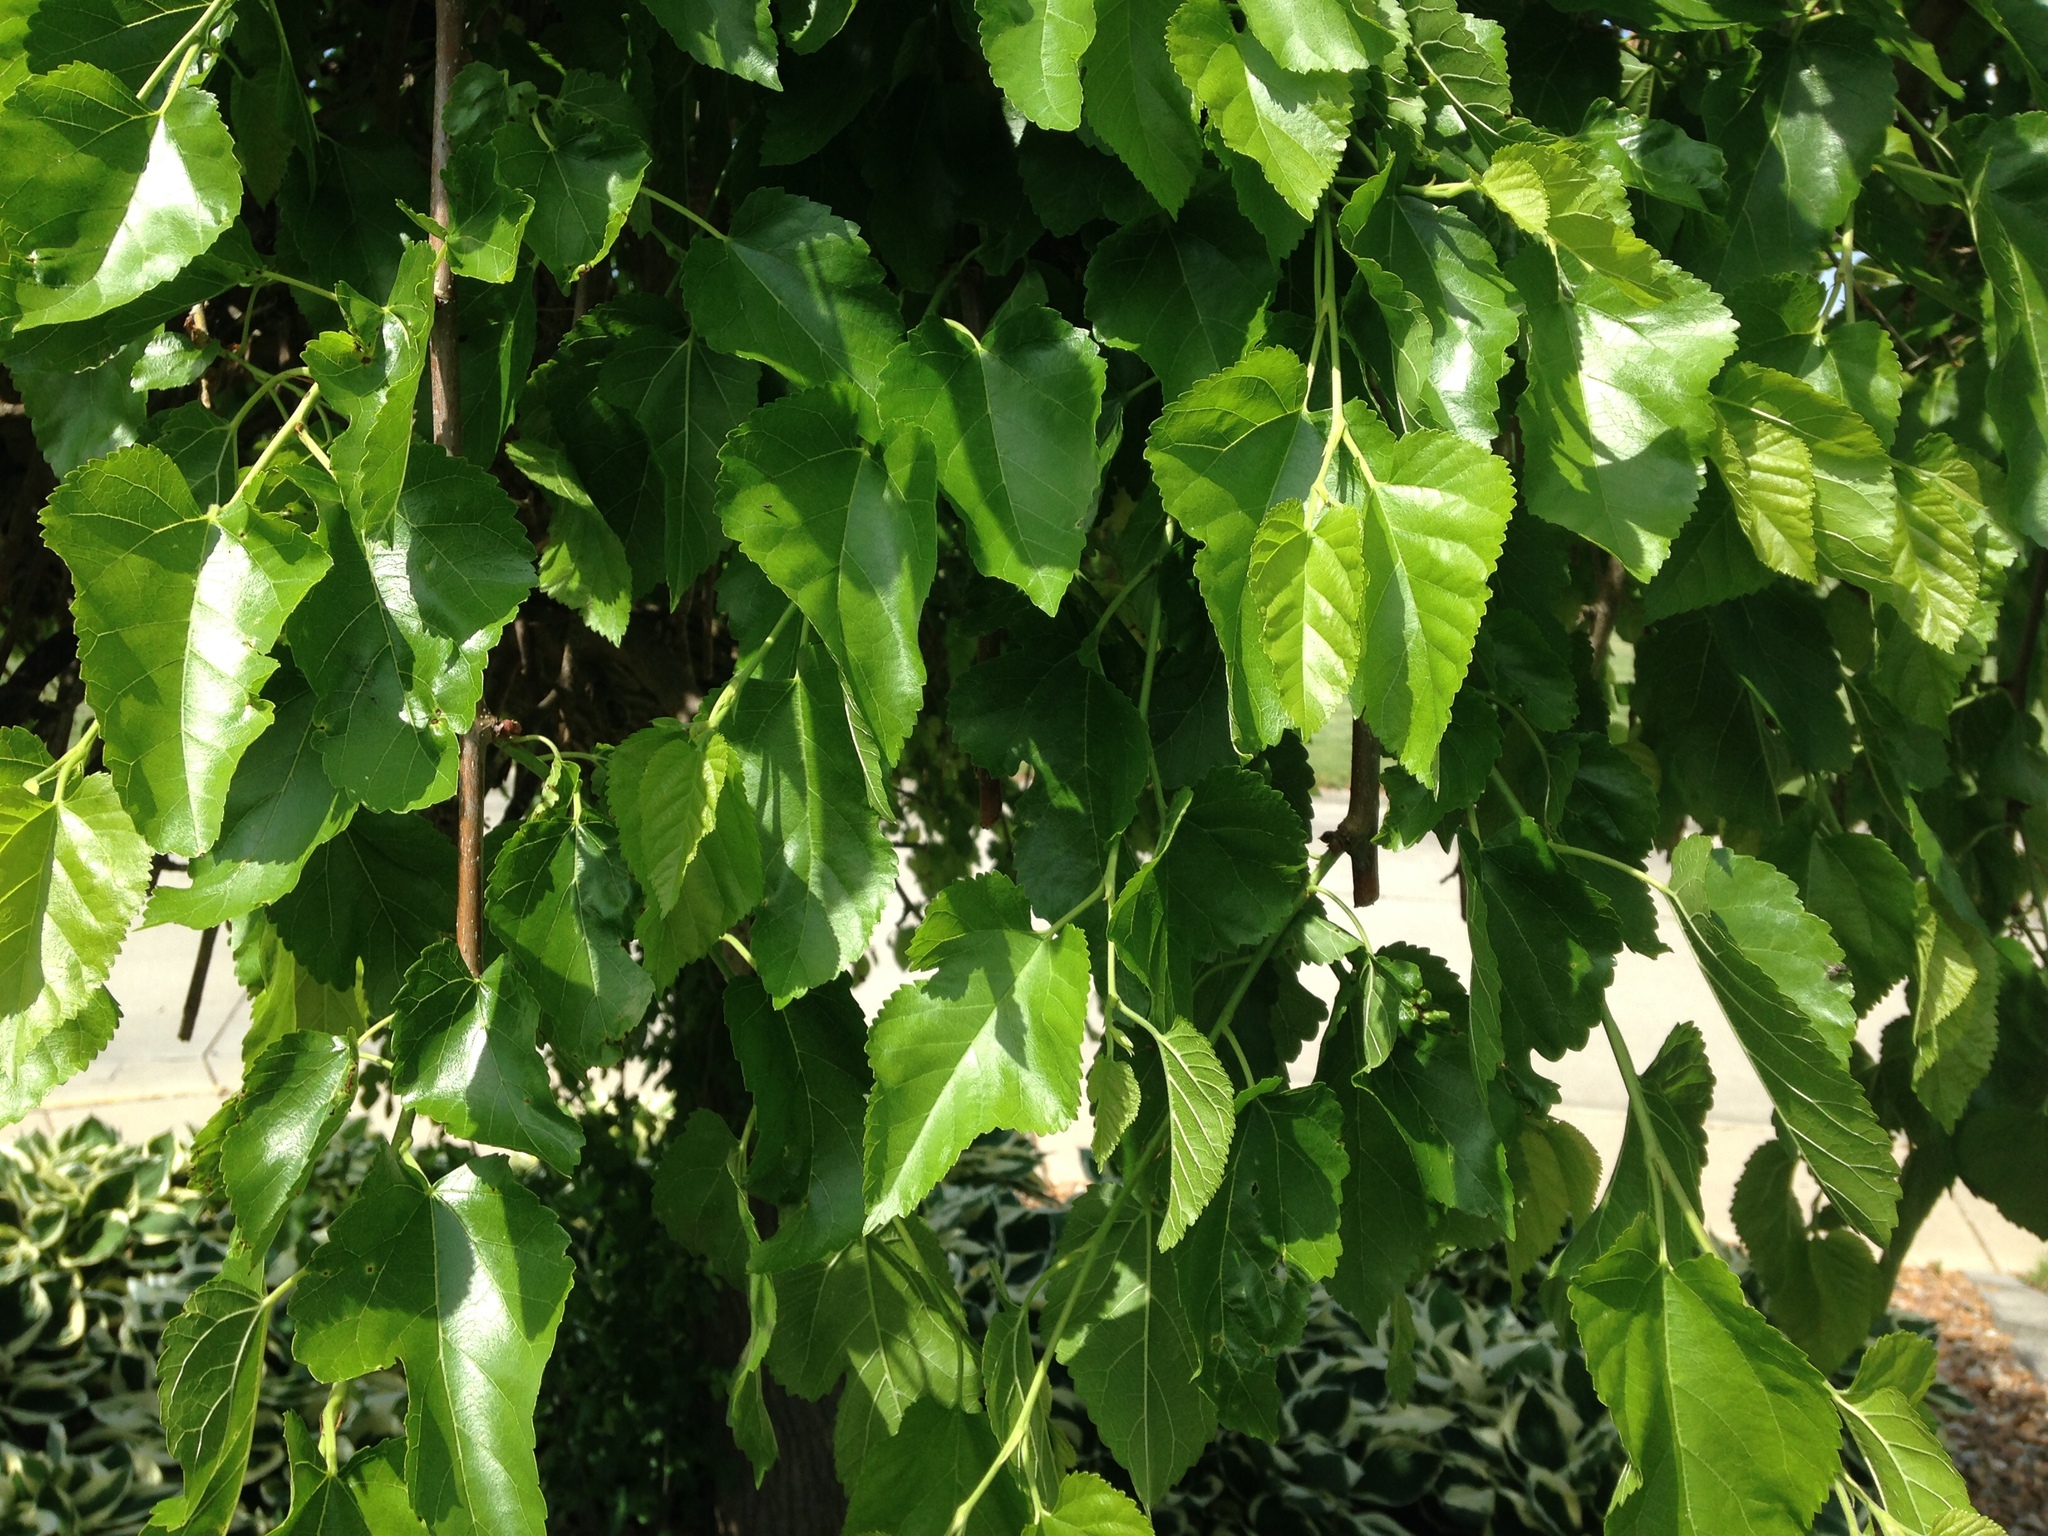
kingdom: Plantae
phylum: Tracheophyta
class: Magnoliopsida
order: Rosales
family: Moraceae
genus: Morus
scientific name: Morus alba
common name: White mulberry
